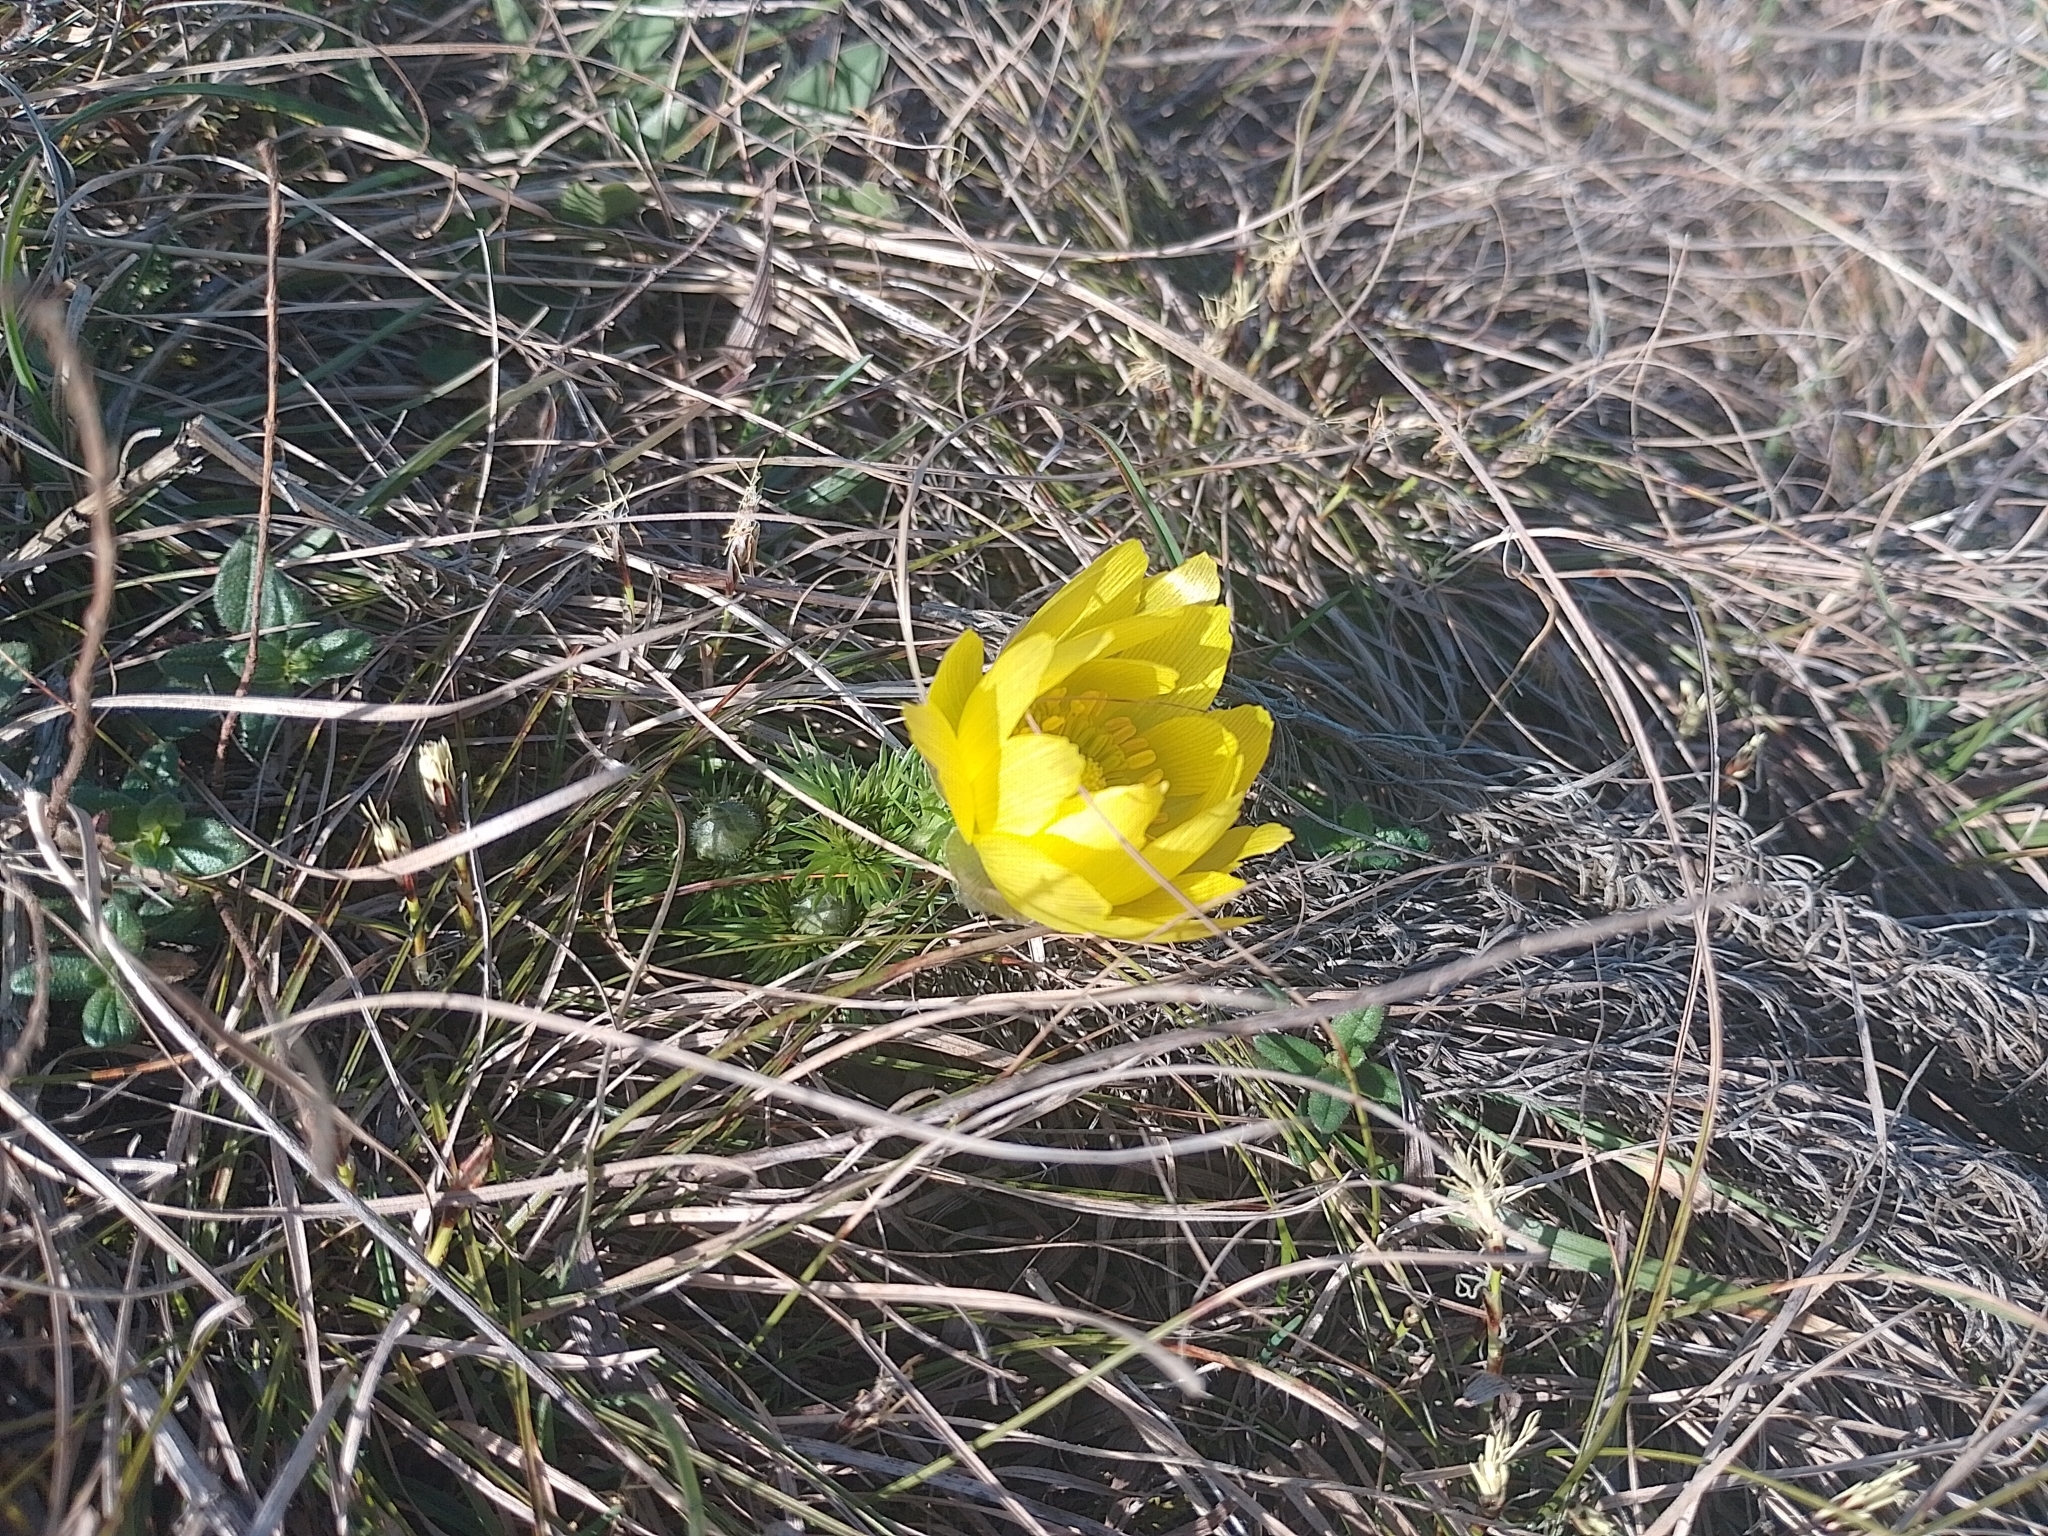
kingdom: Plantae
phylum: Tracheophyta
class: Magnoliopsida
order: Ranunculales
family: Ranunculaceae
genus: Adonis
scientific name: Adonis vernalis
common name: Yellow pheasants-eye
